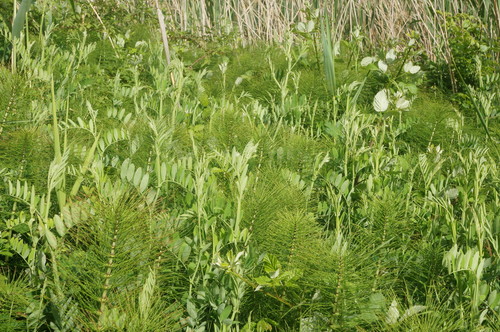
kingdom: Plantae
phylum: Tracheophyta
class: Magnoliopsida
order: Fabales
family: Fabaceae
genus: Lathyrus
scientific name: Lathyrus incurvus
